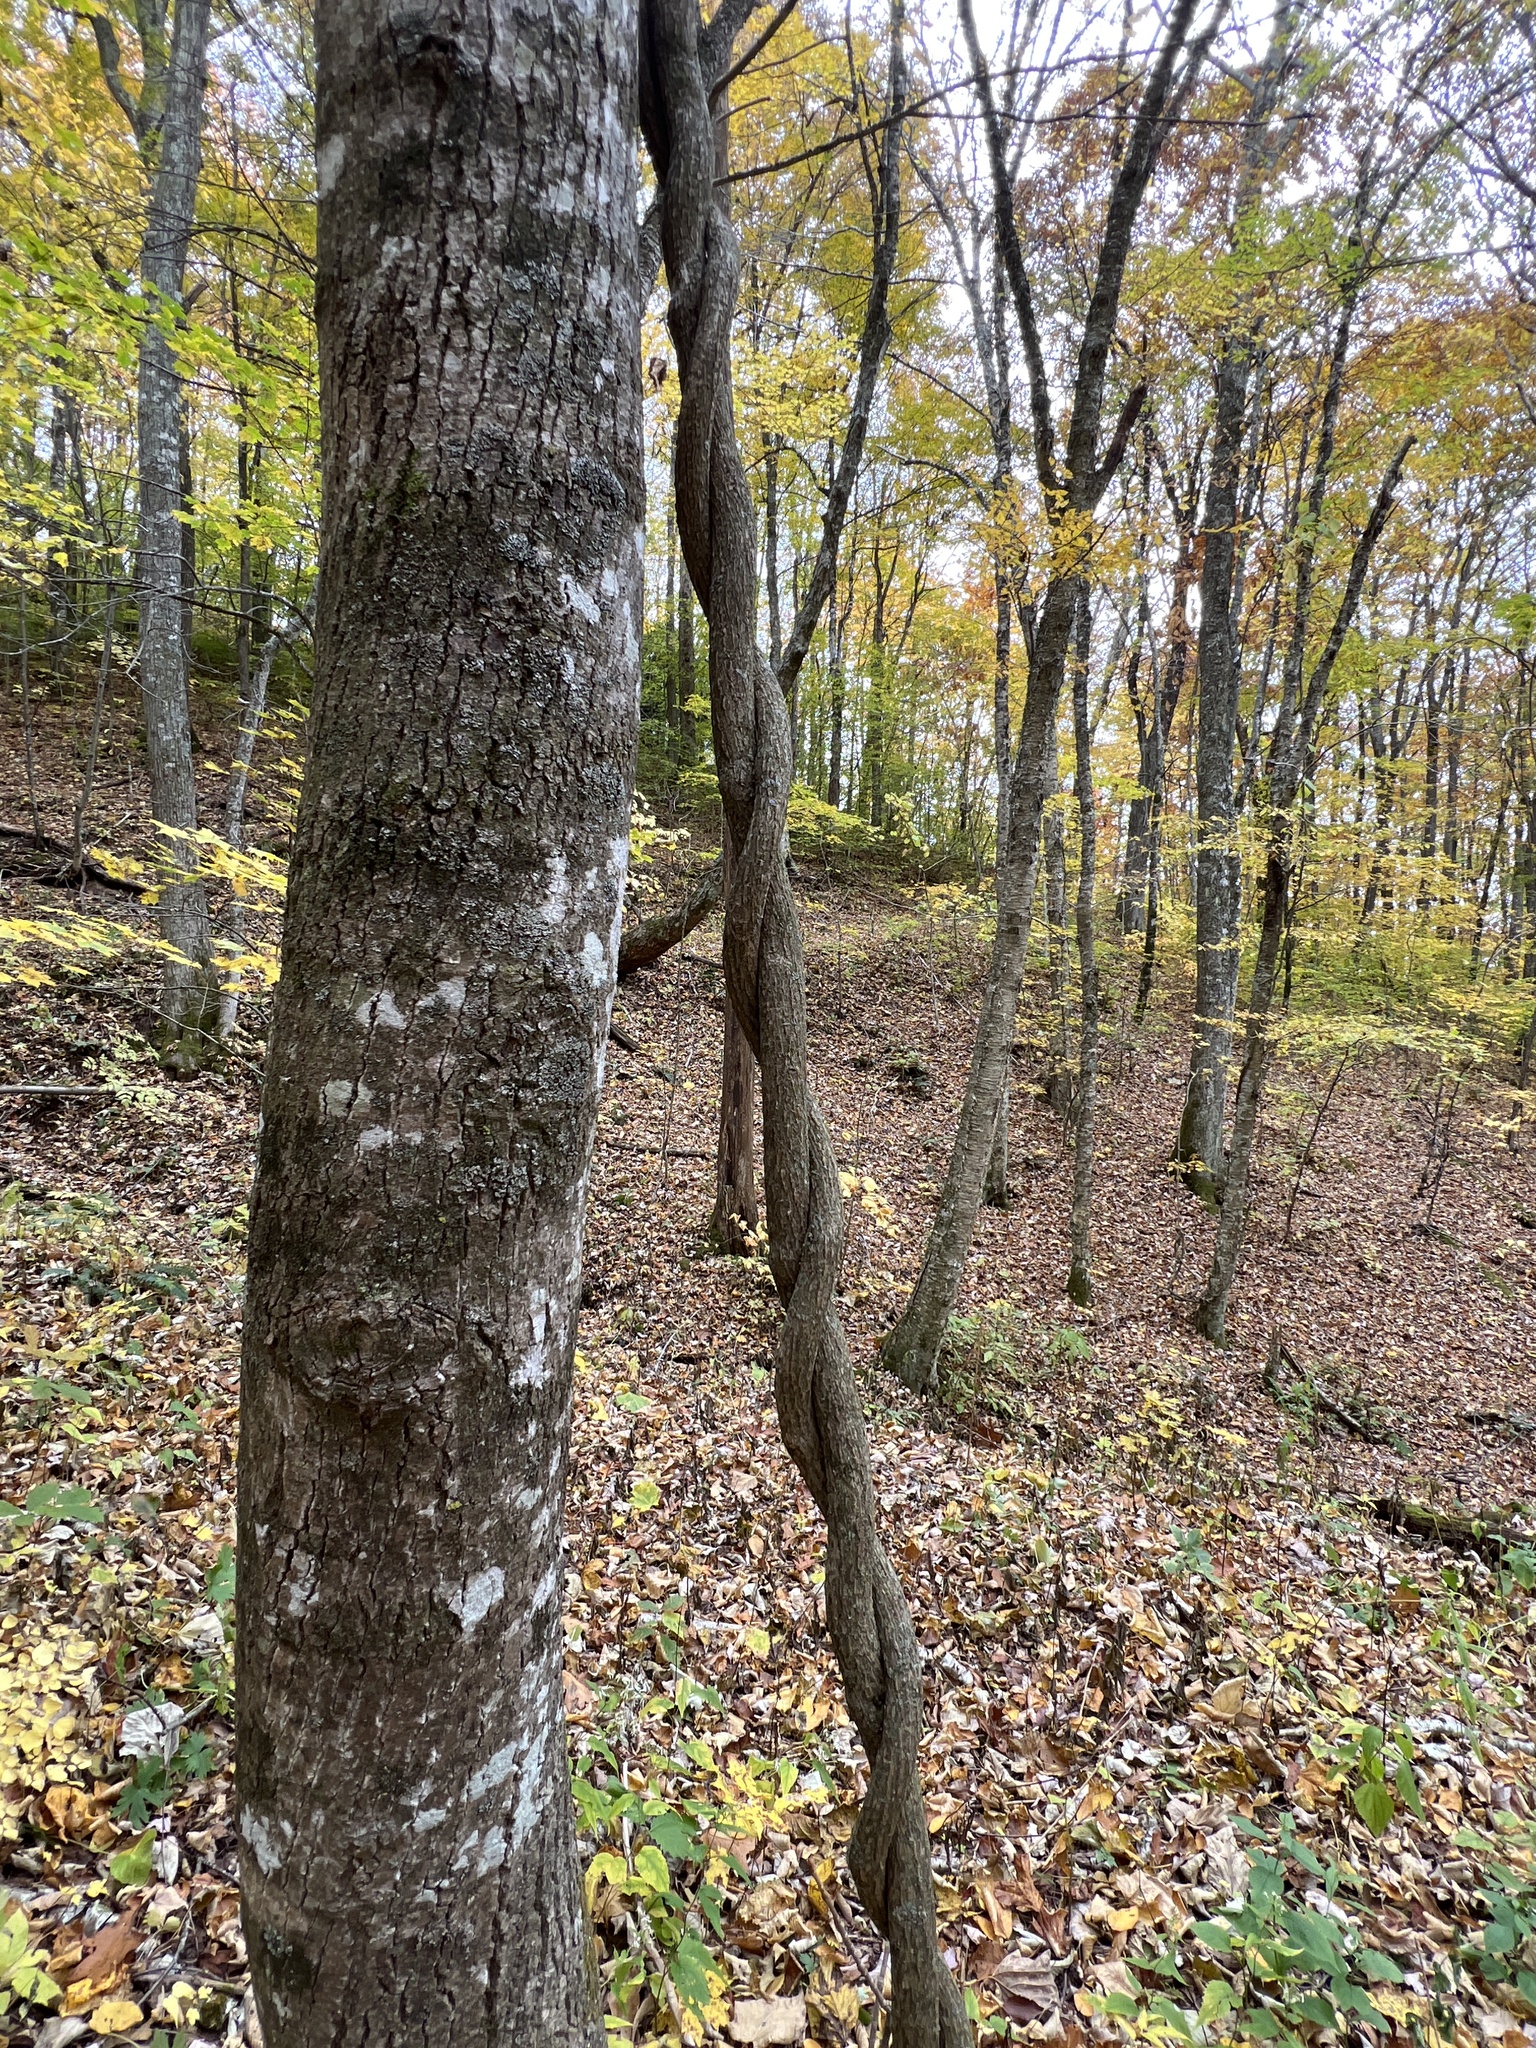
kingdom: Plantae
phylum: Tracheophyta
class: Magnoliopsida
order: Piperales
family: Aristolochiaceae
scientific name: Aristolochiaceae
